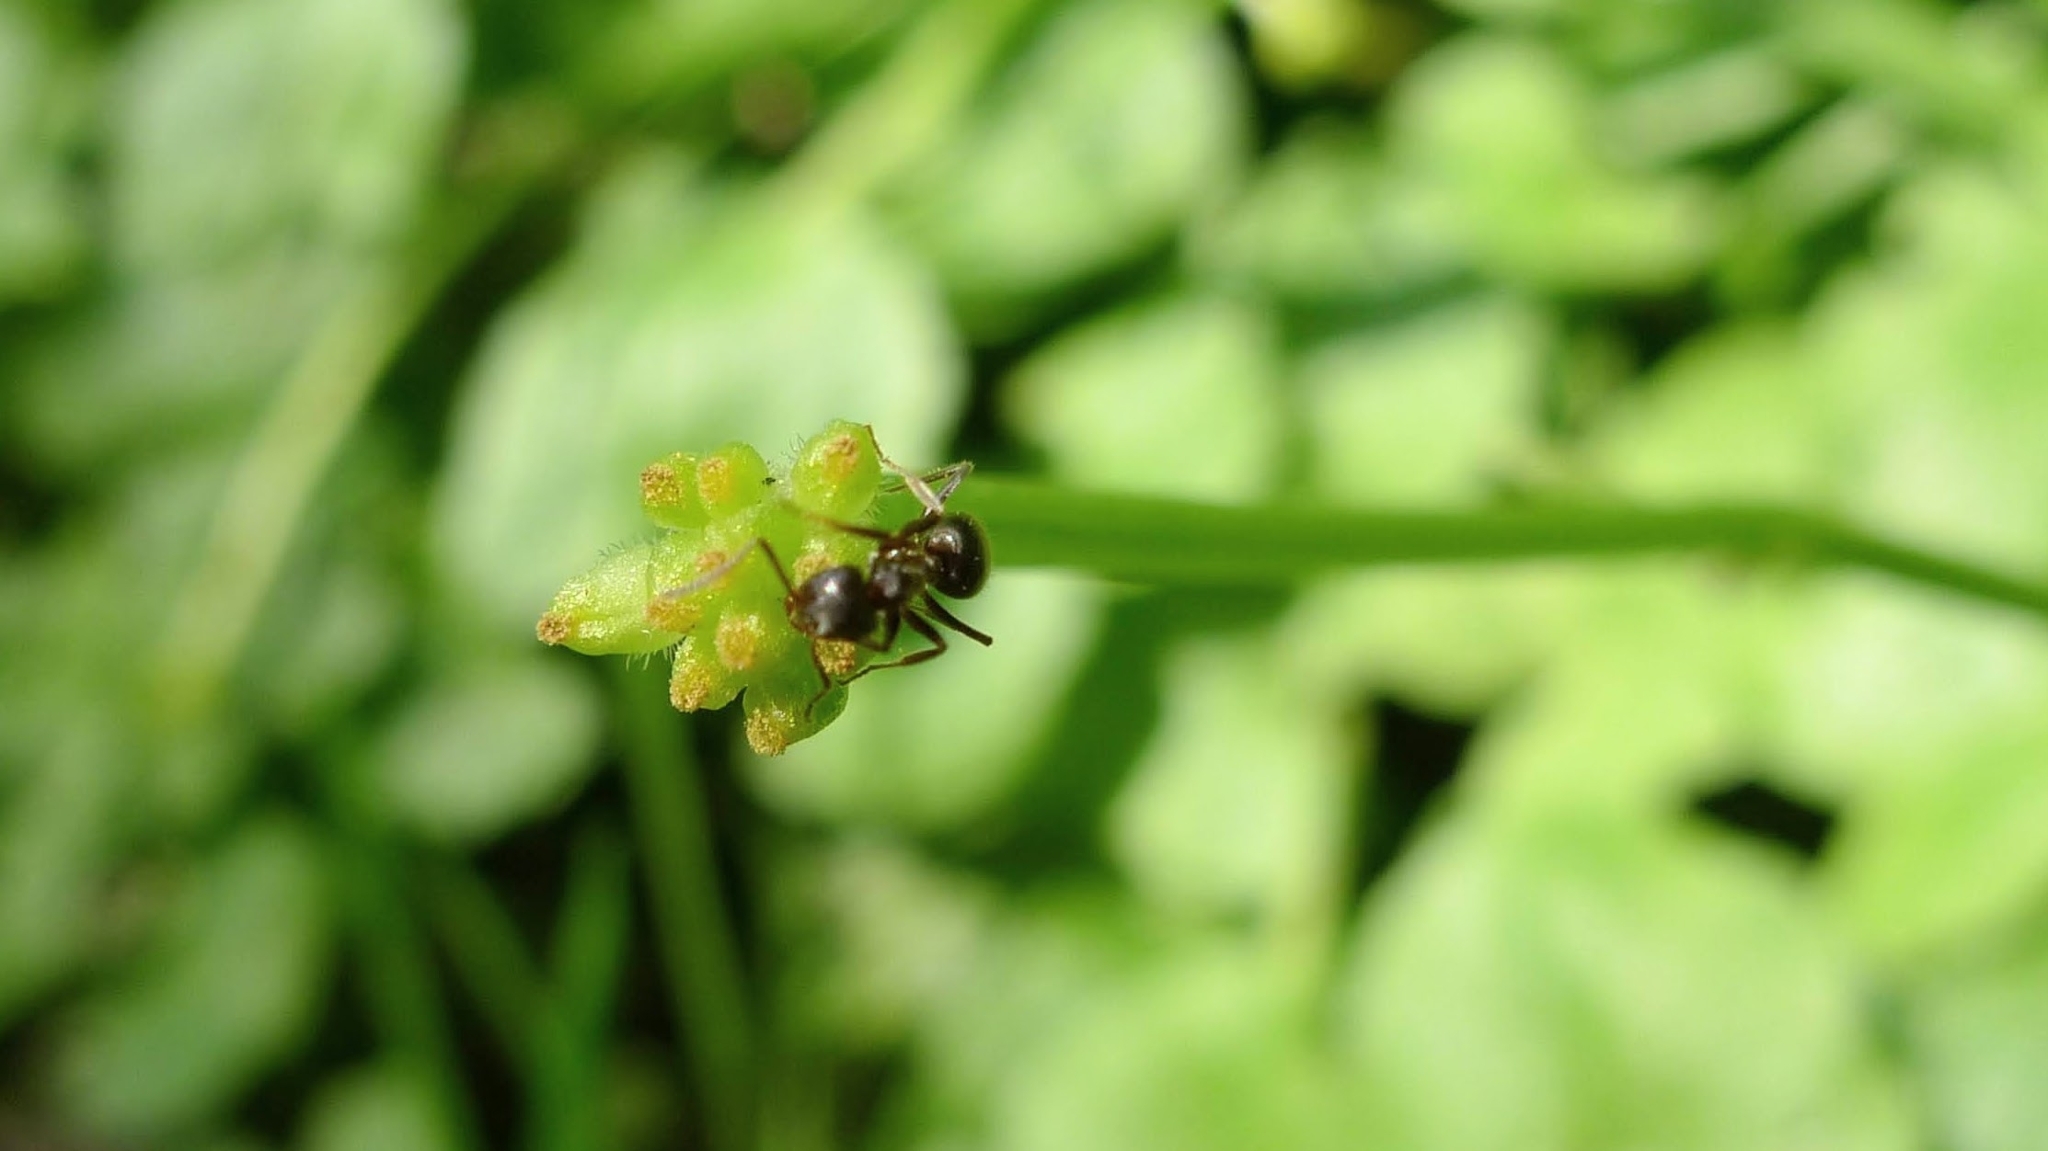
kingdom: Plantae
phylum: Tracheophyta
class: Magnoliopsida
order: Ranunculales
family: Ranunculaceae
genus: Ficaria
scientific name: Ficaria verna
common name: Lesser celandine
